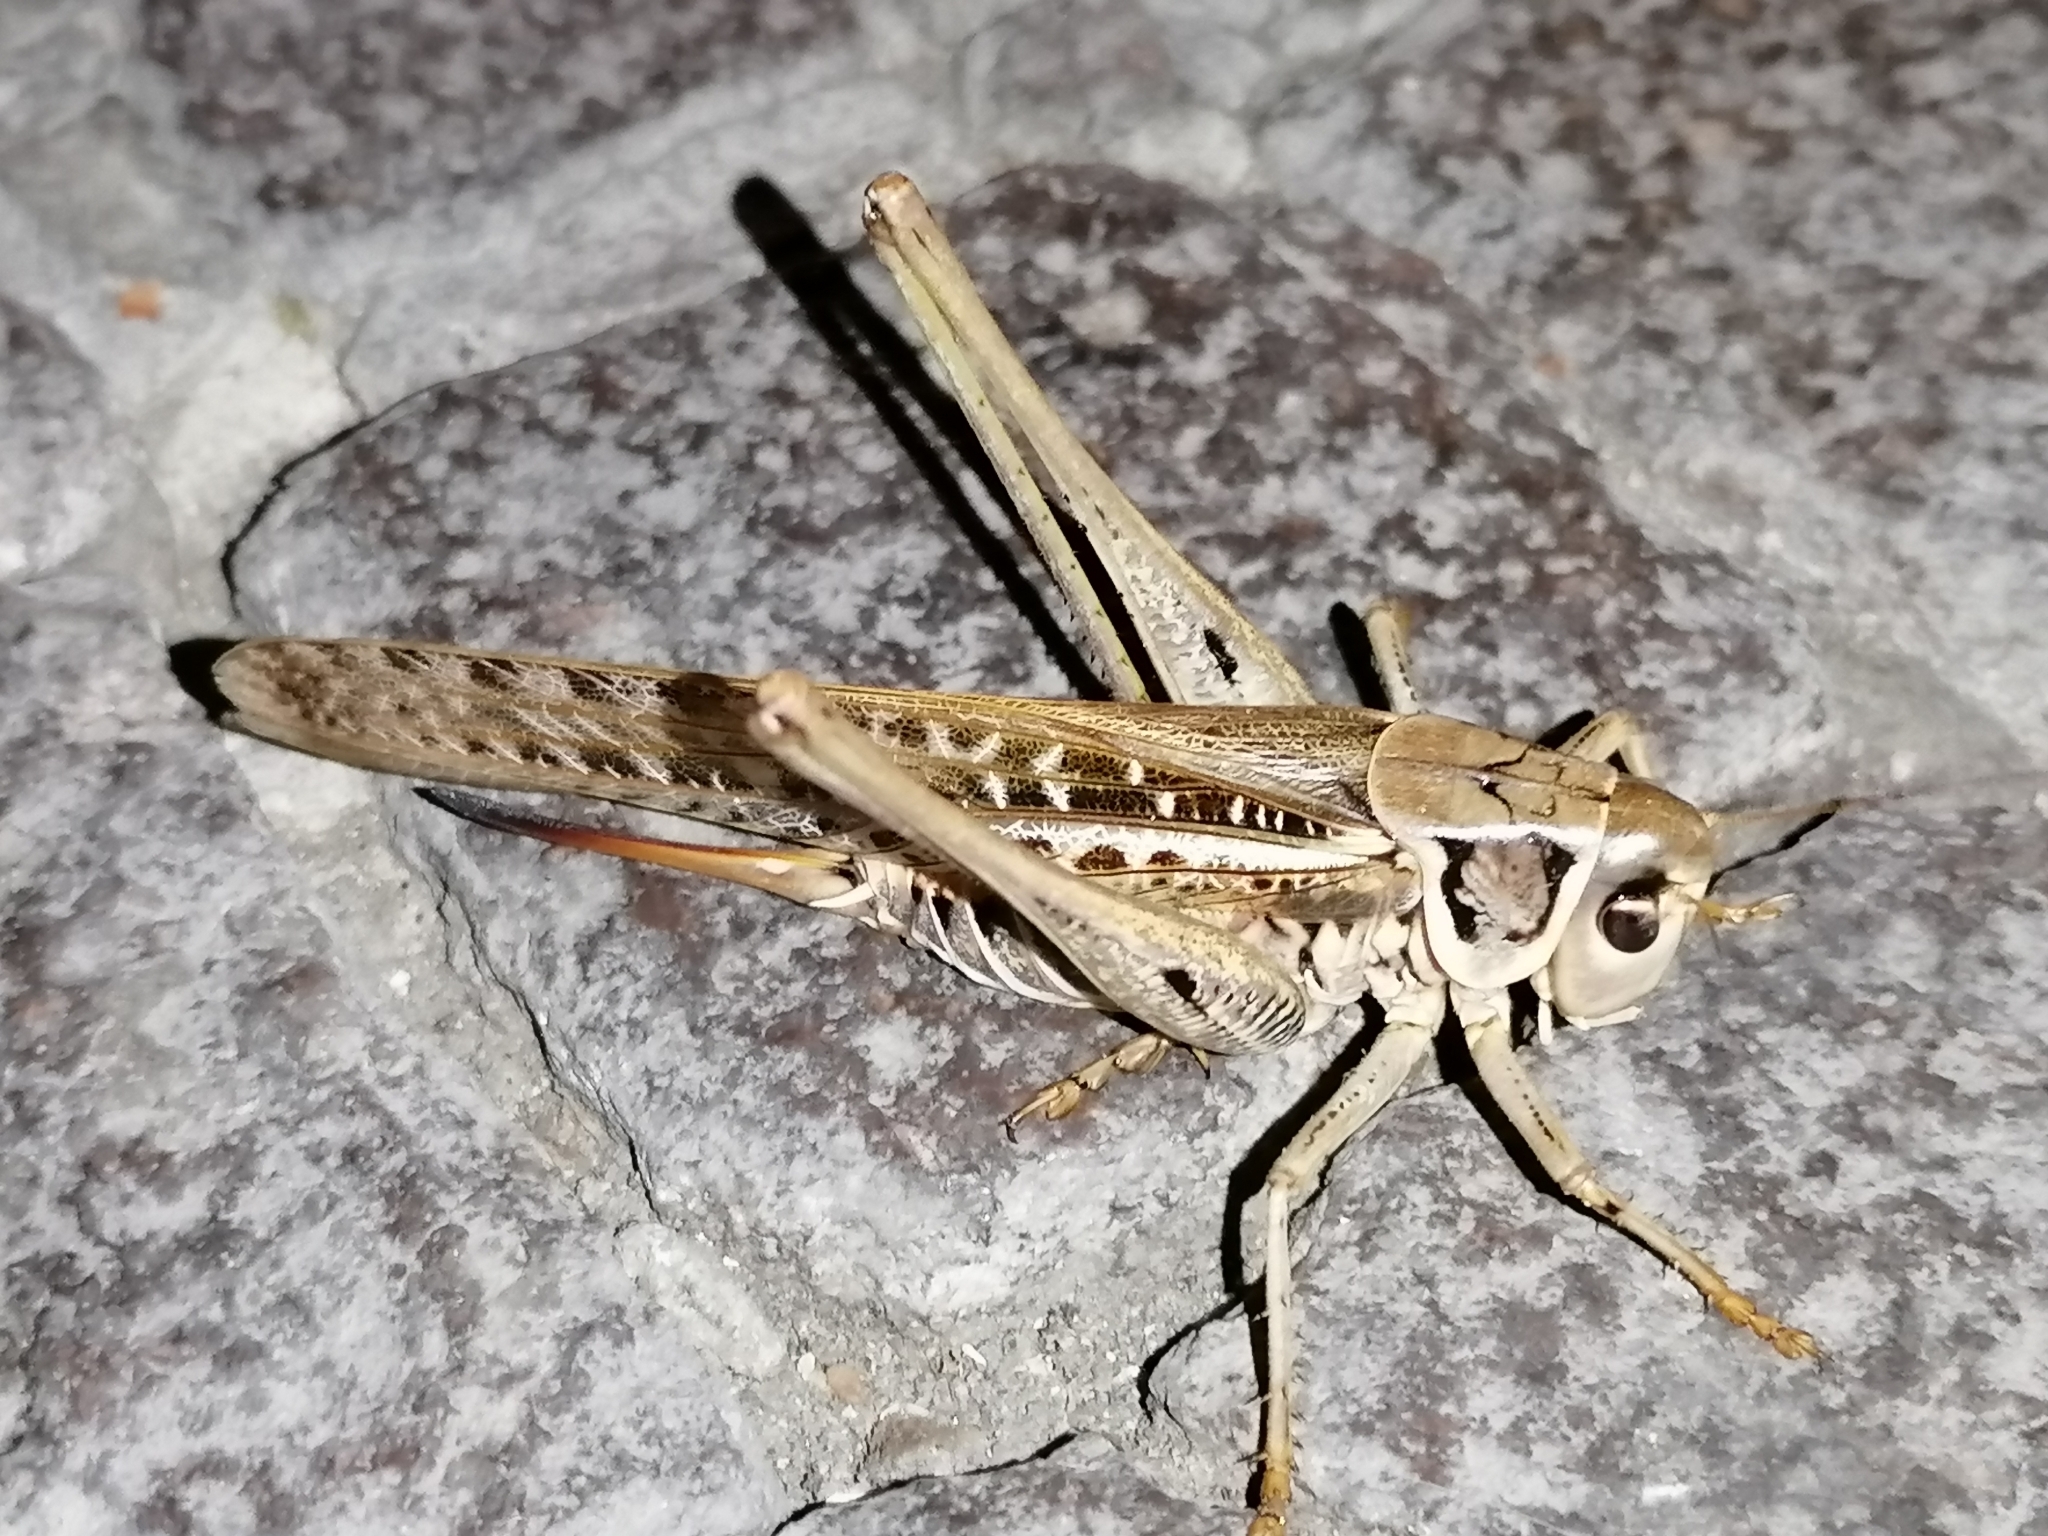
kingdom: Animalia
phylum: Arthropoda
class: Insecta
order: Orthoptera
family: Tettigoniidae
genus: Decticus
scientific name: Decticus albifrons
